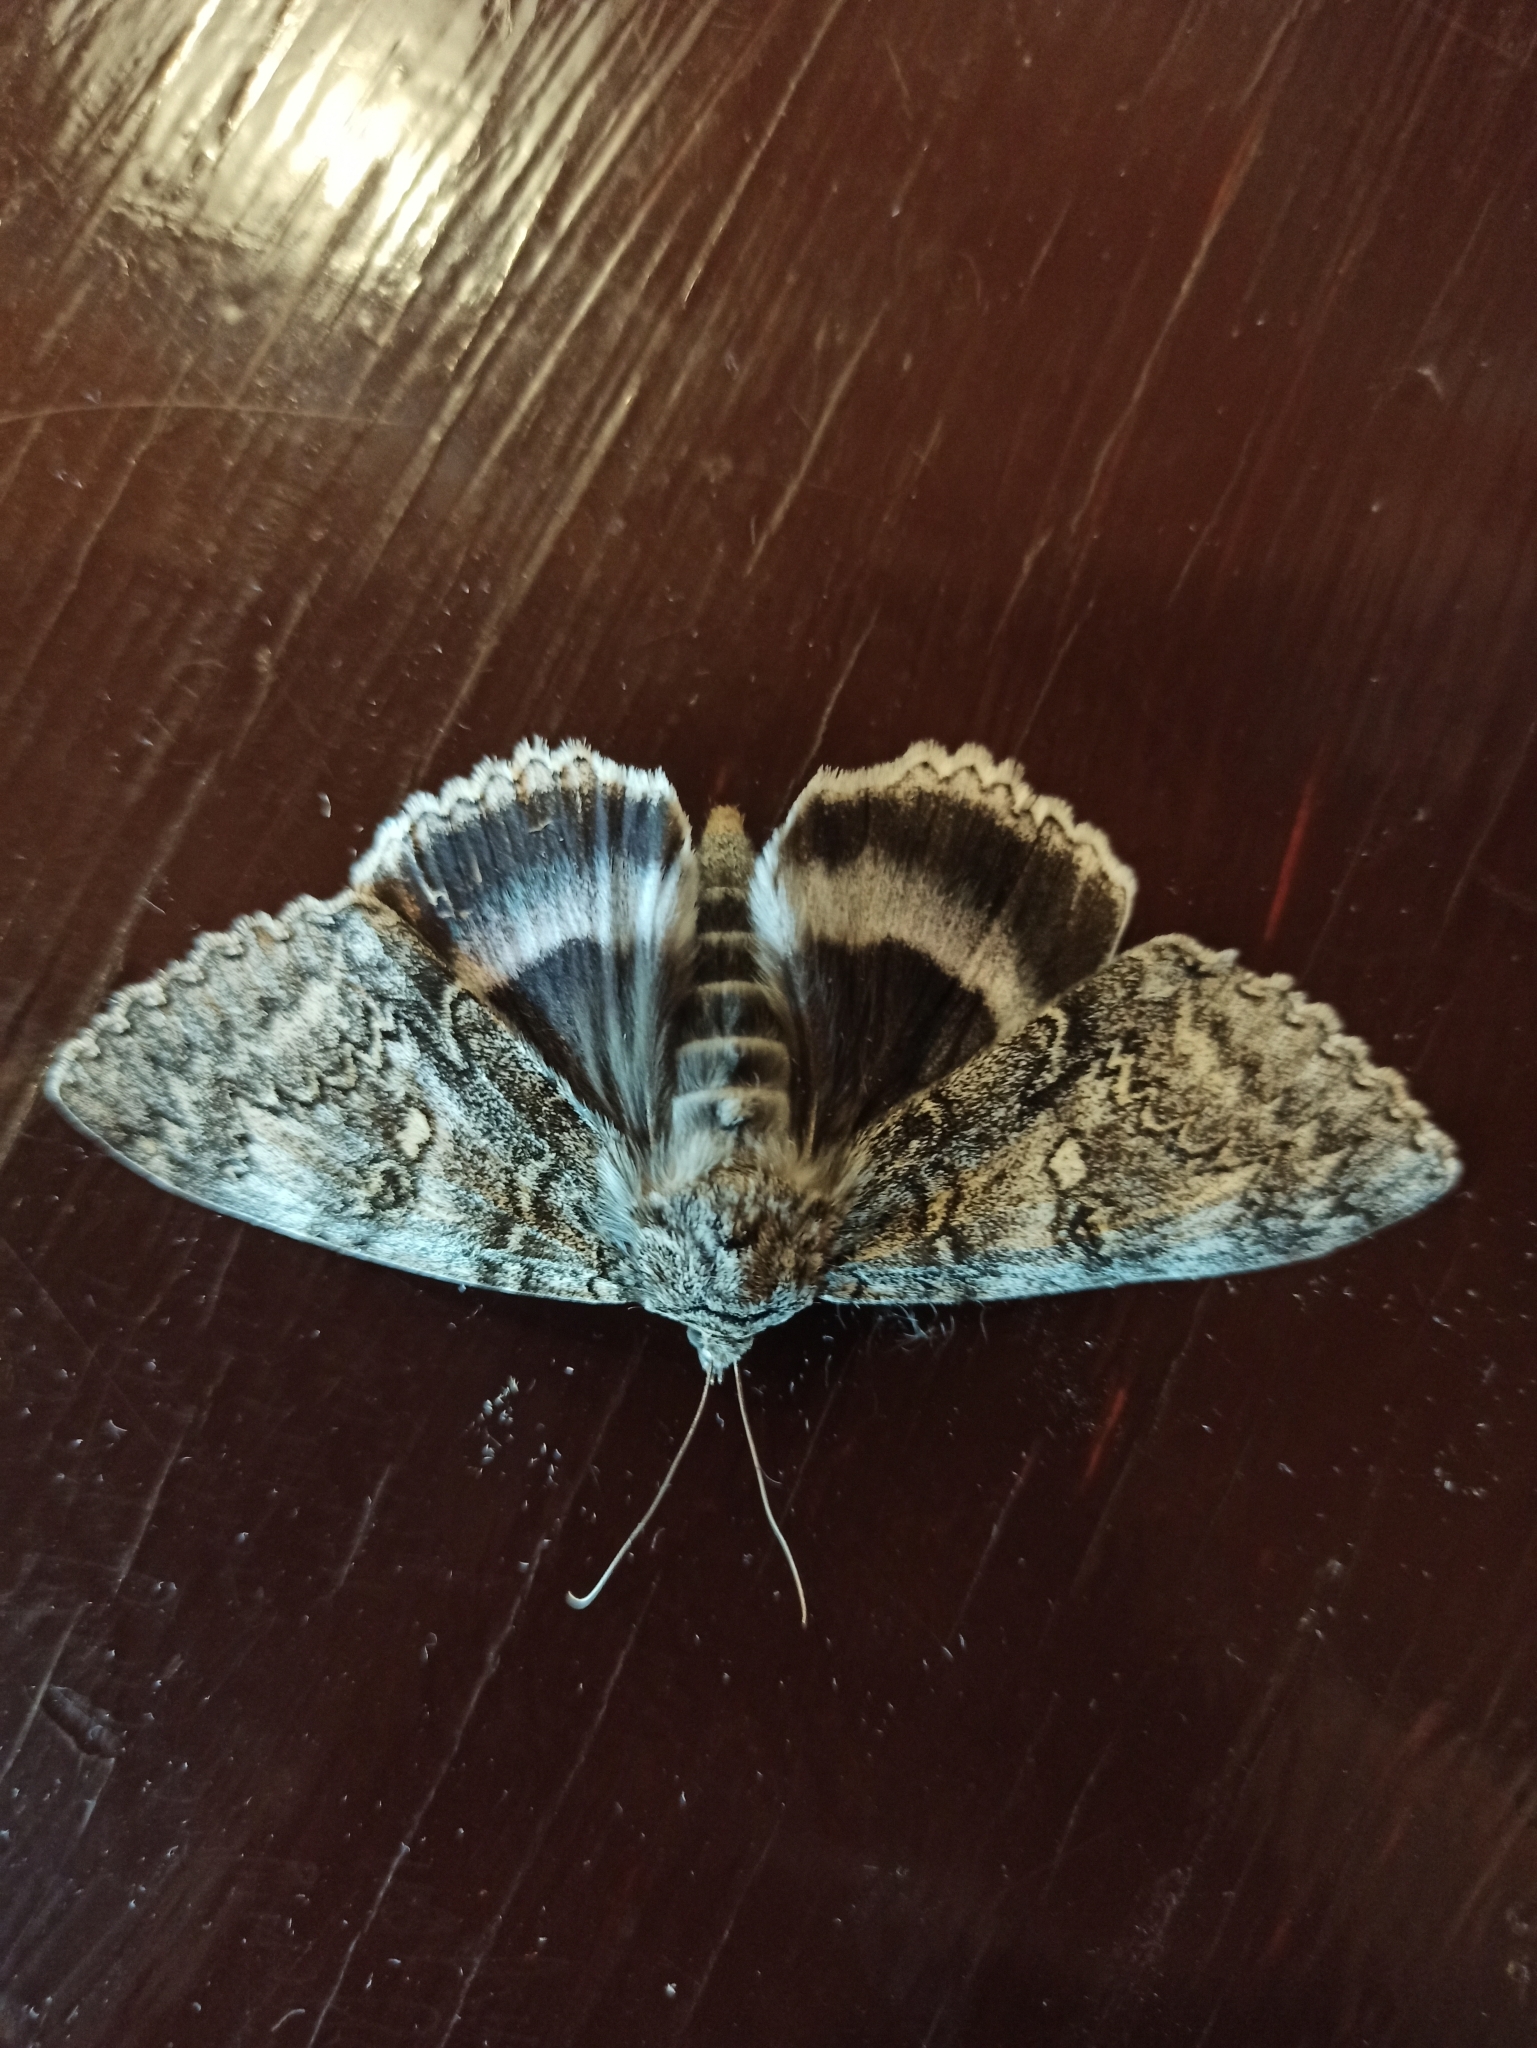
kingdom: Animalia
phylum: Arthropoda
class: Insecta
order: Lepidoptera
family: Erebidae
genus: Catocala
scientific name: Catocala fraxini
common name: Clifden nonpareil
